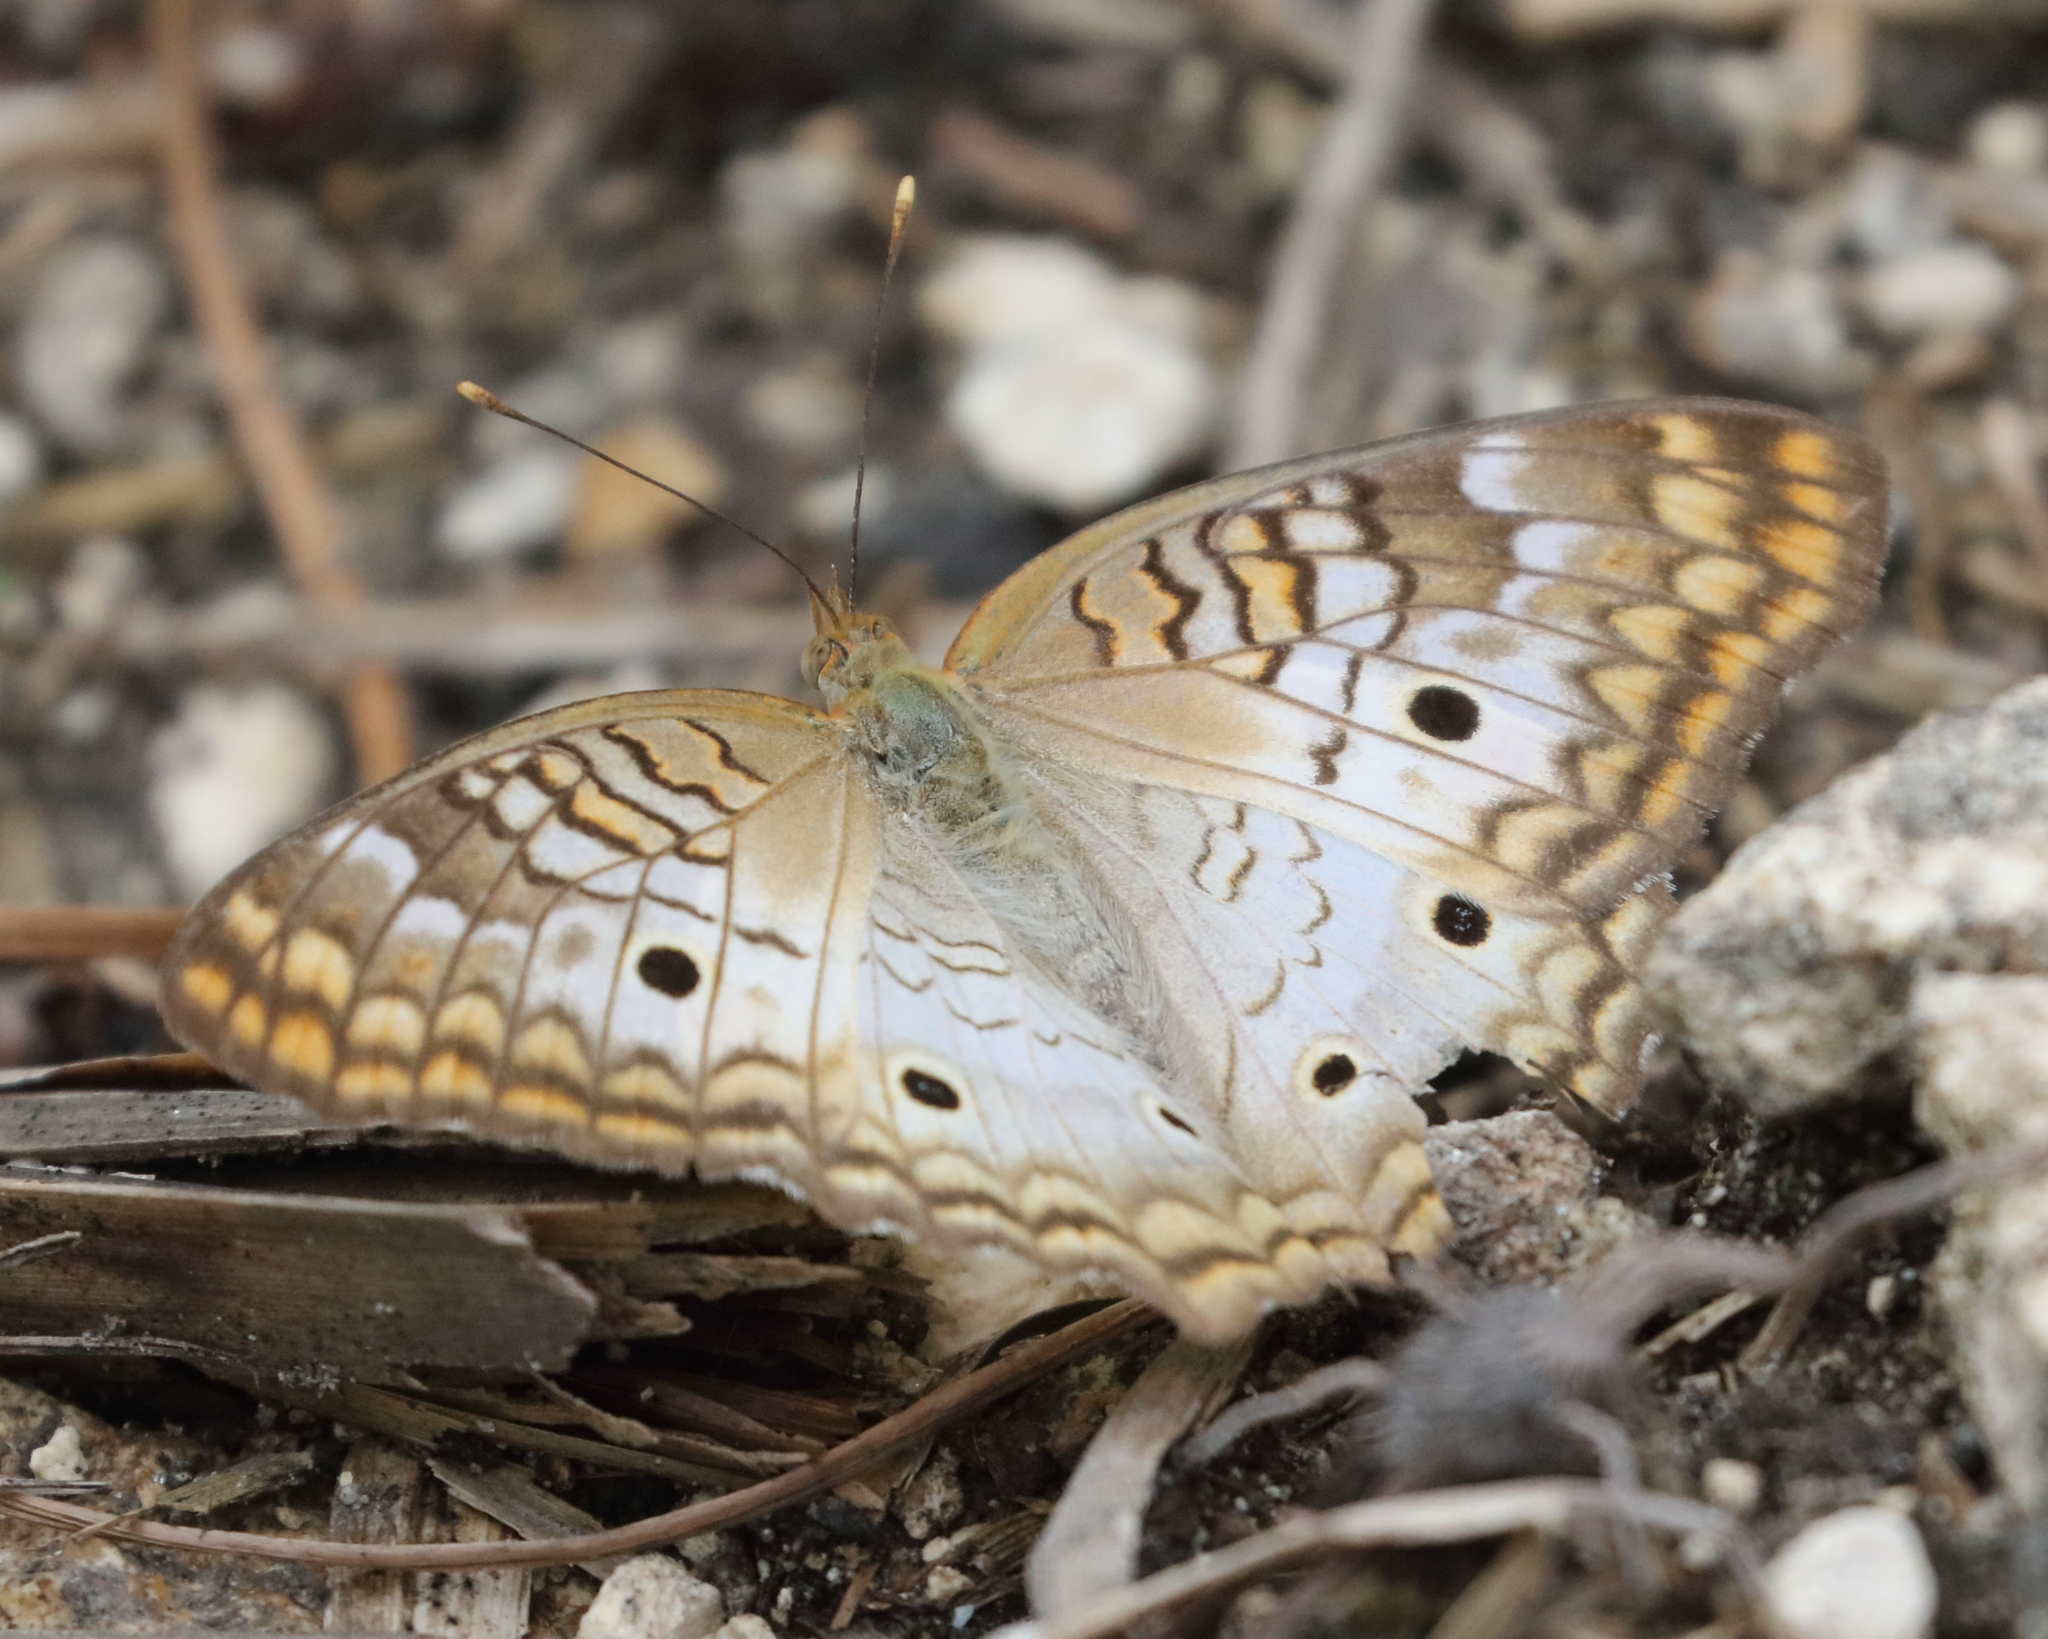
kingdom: Animalia
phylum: Arthropoda
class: Insecta
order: Lepidoptera
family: Nymphalidae
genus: Anartia
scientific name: Anartia jatrophae
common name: White peacock
